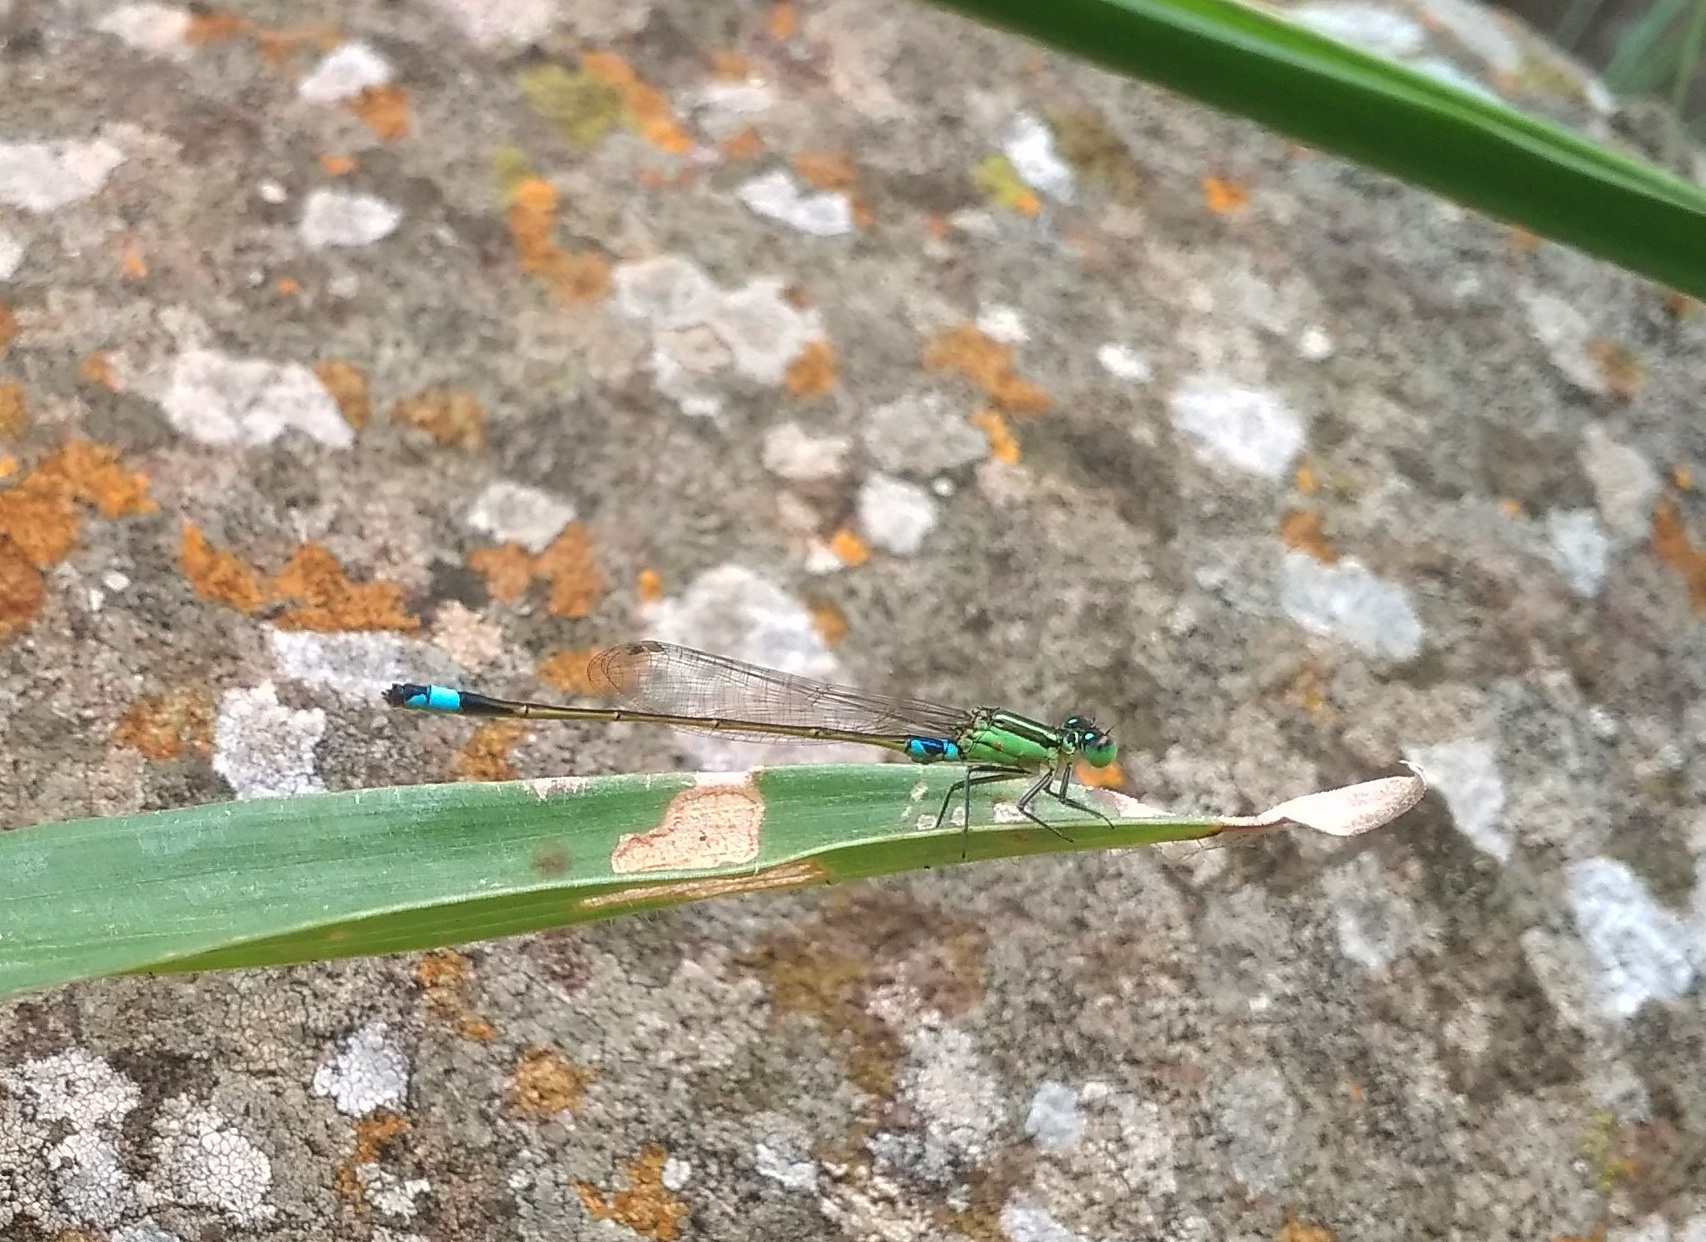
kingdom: Animalia
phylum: Arthropoda
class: Insecta
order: Odonata
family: Coenagrionidae
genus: Ischnura
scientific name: Ischnura senegalensis
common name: Tropical bluetail
